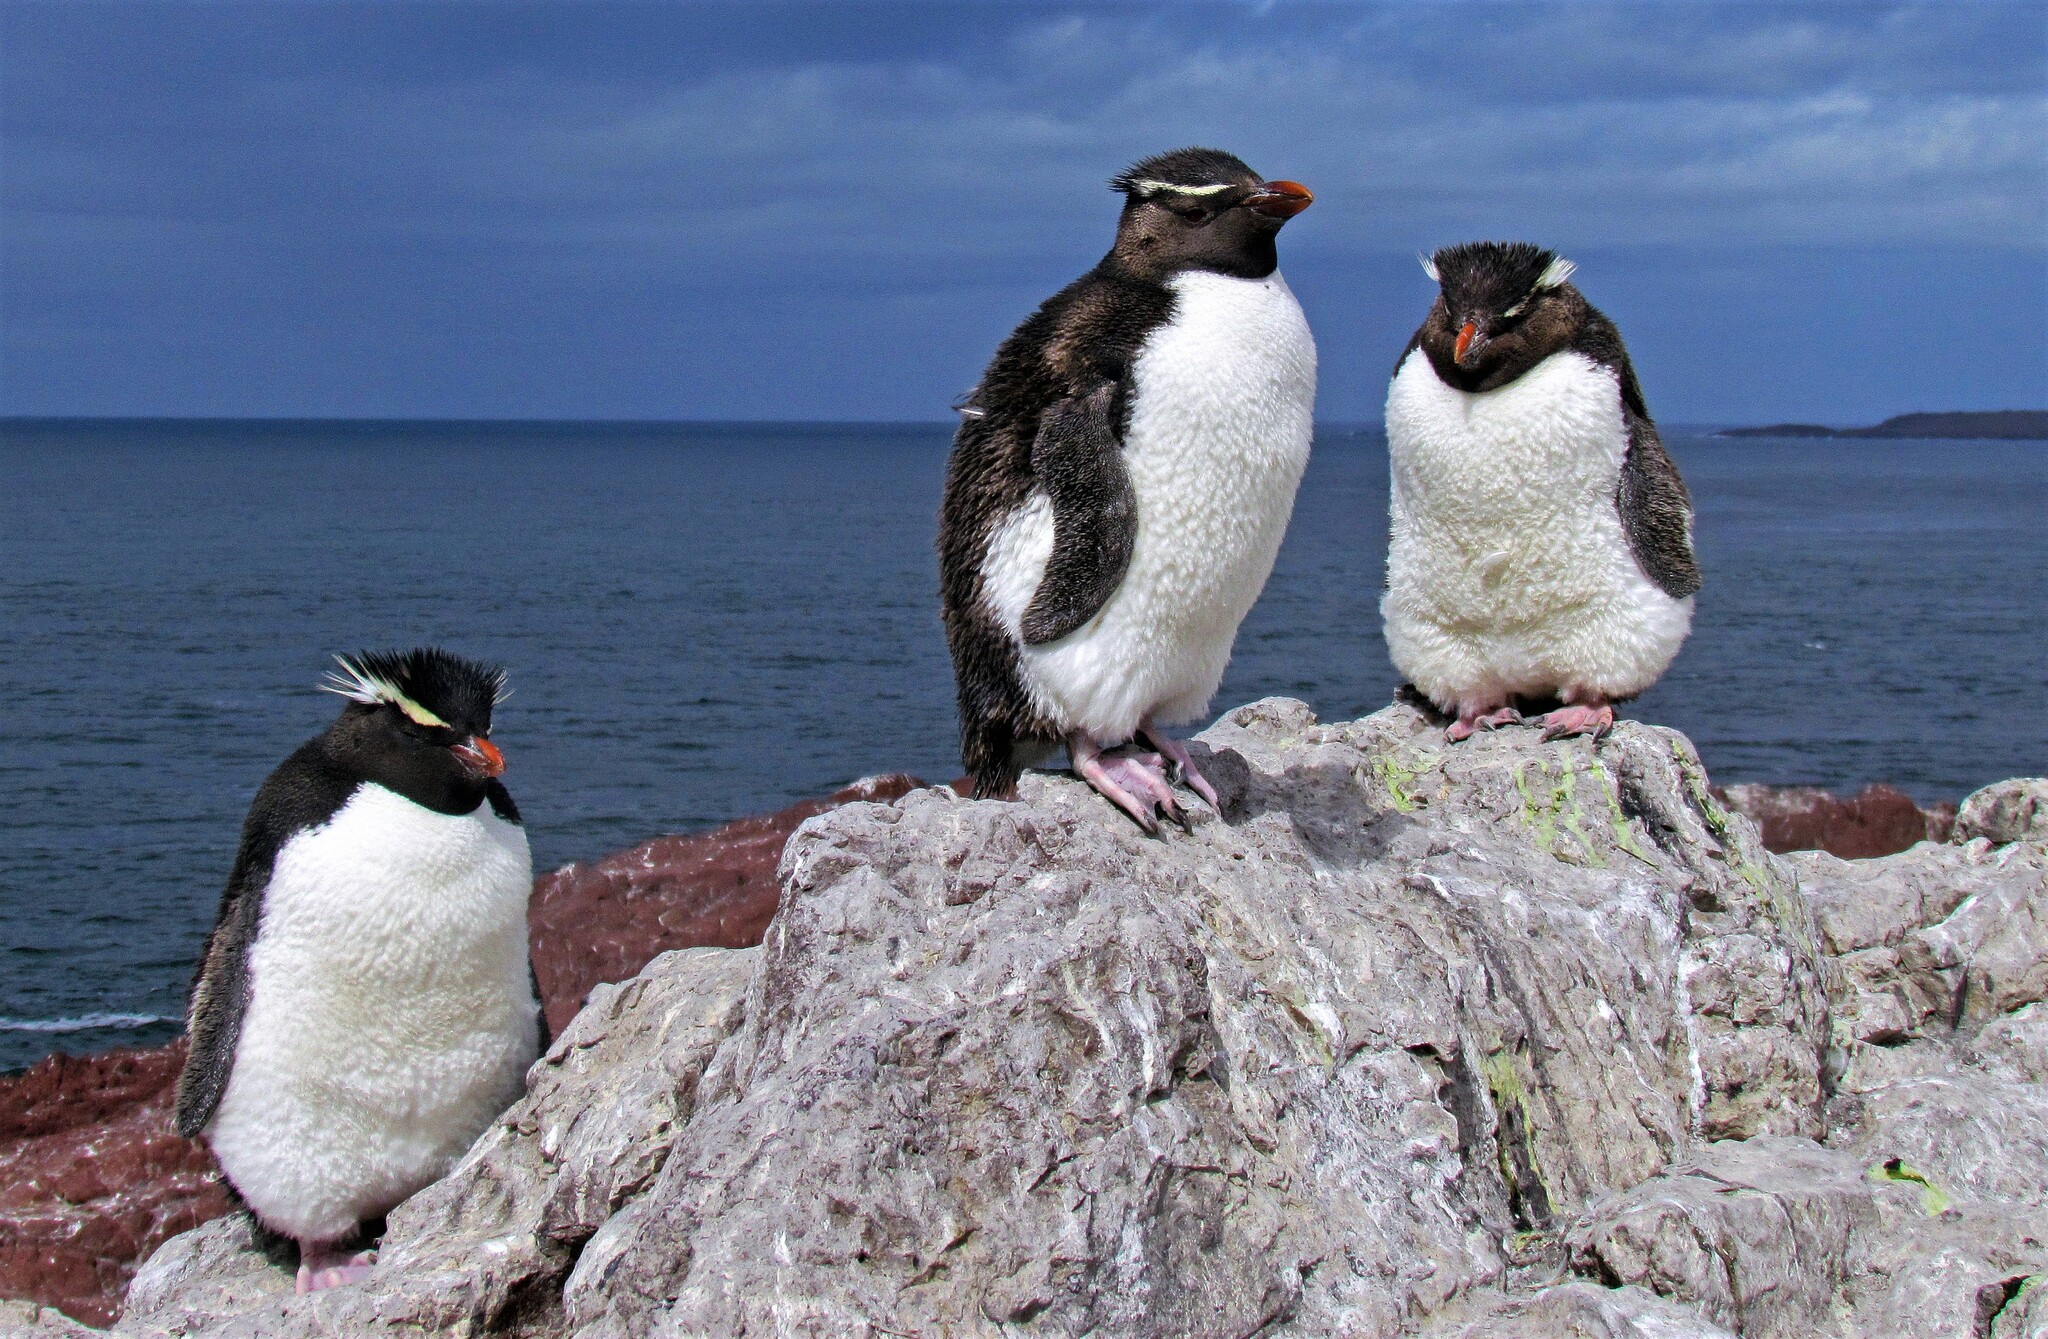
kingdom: Animalia
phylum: Chordata
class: Aves
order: Sphenisciformes
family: Spheniscidae
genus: Eudyptes
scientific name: Eudyptes chrysocome
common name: Southern rockhopper penguin
